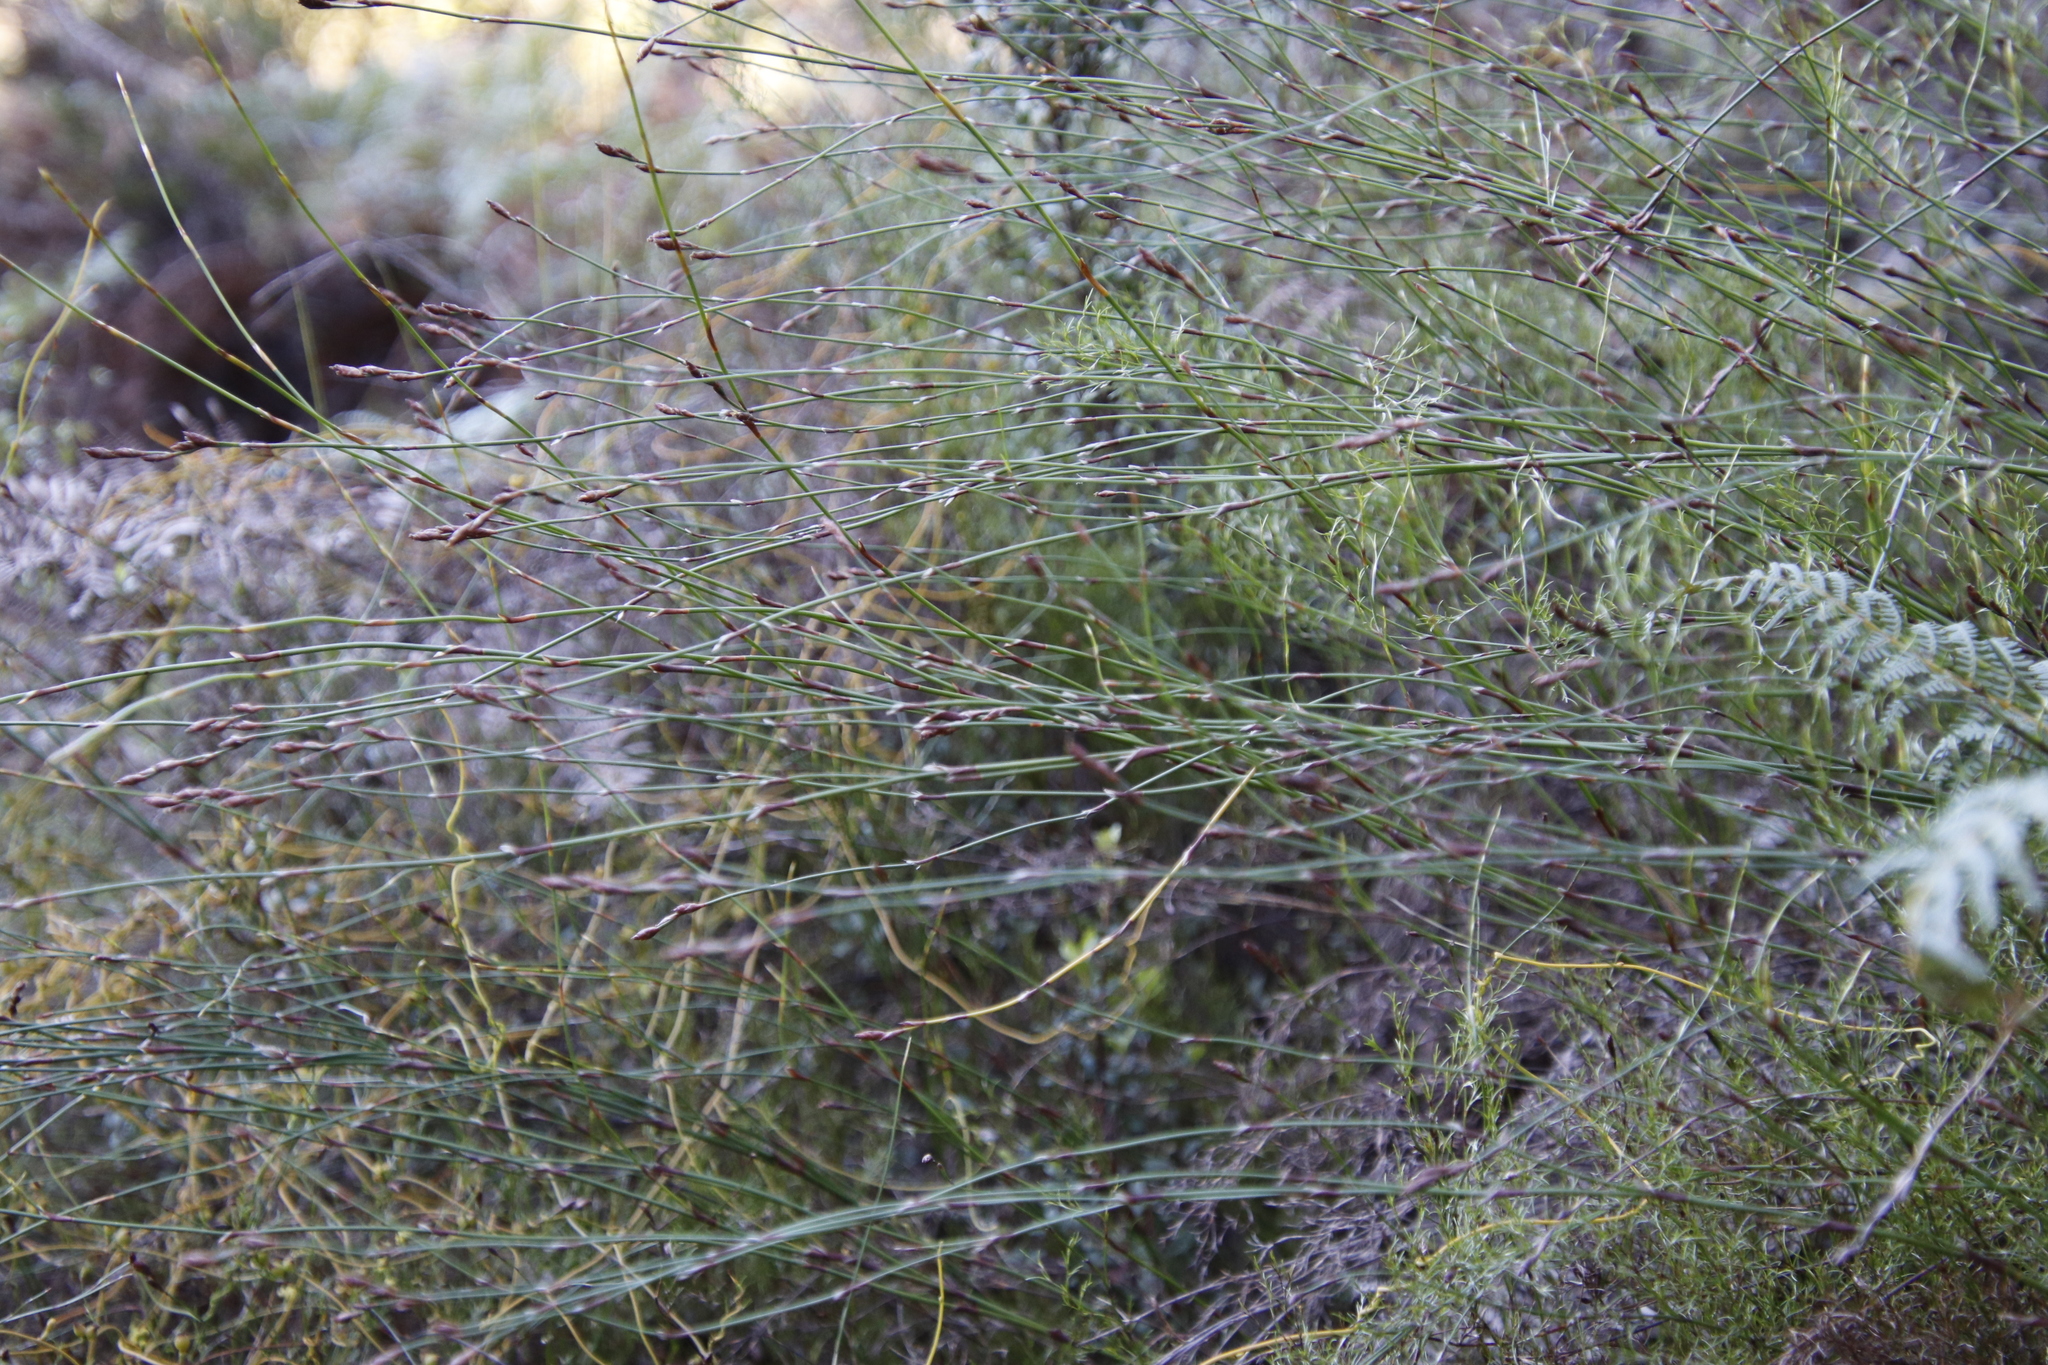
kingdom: Plantae
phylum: Tracheophyta
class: Liliopsida
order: Poales
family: Restionaceae
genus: Restio
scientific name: Restio gaudichaudianus
